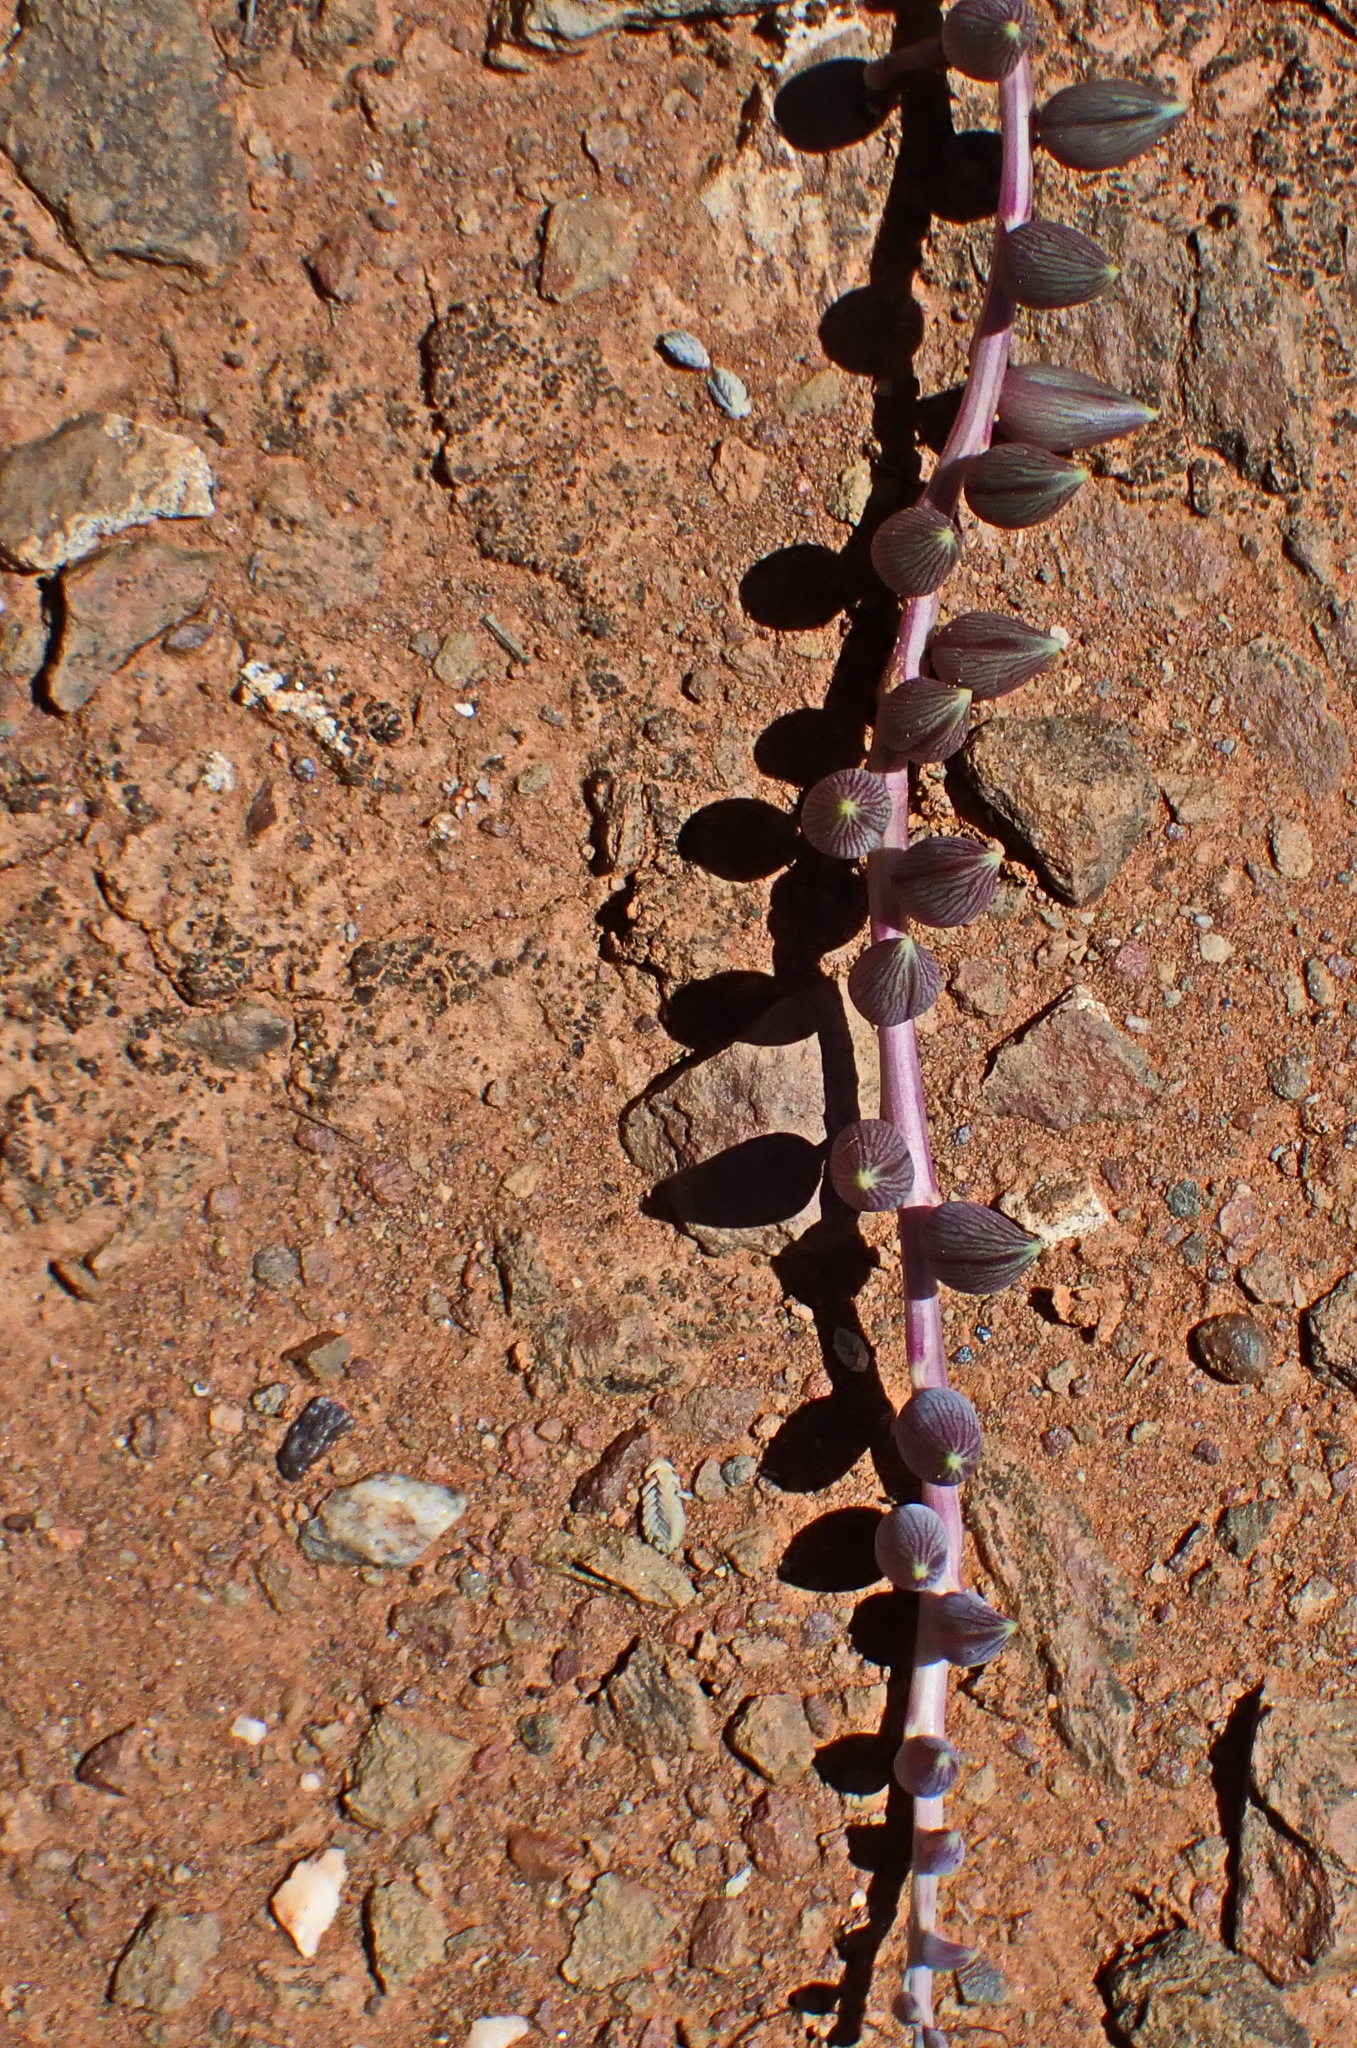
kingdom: Plantae
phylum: Tracheophyta
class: Magnoliopsida
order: Asterales
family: Asteraceae
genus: Curio
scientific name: Curio radicans
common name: Creeping-berry
